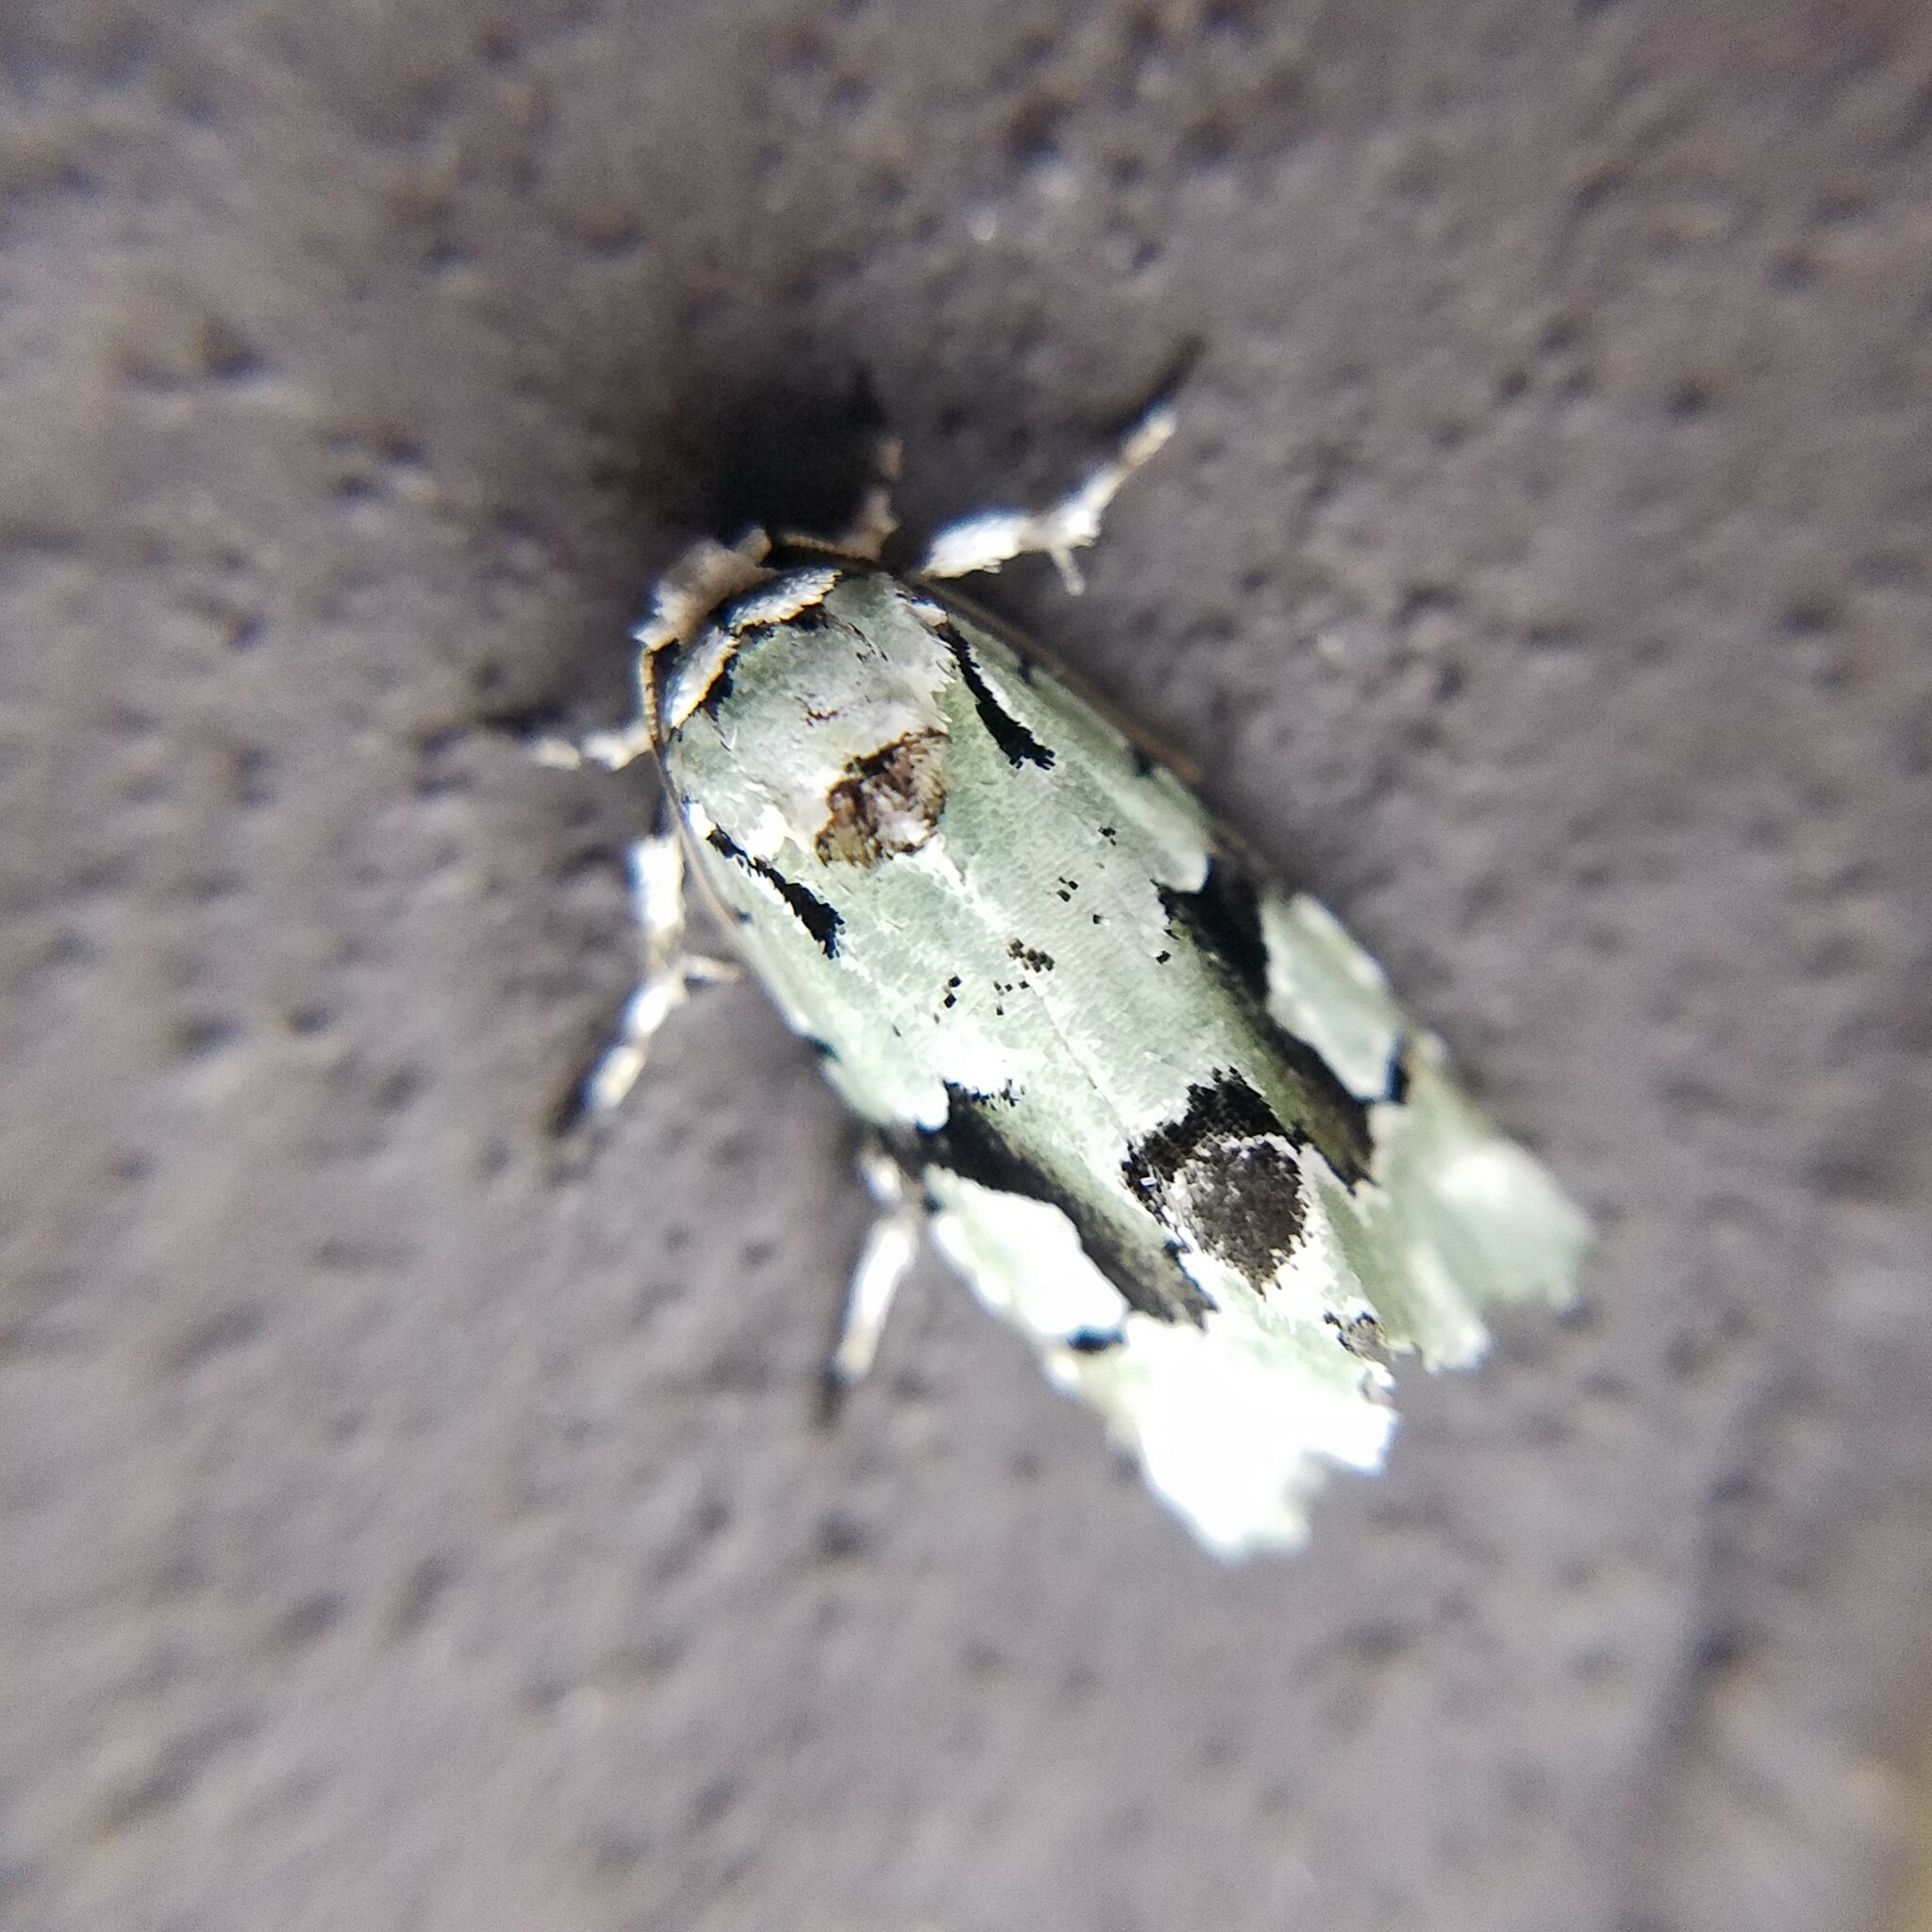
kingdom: Animalia
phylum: Arthropoda
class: Insecta
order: Lepidoptera
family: Noctuidae
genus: Emarginea
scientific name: Emarginea percara
